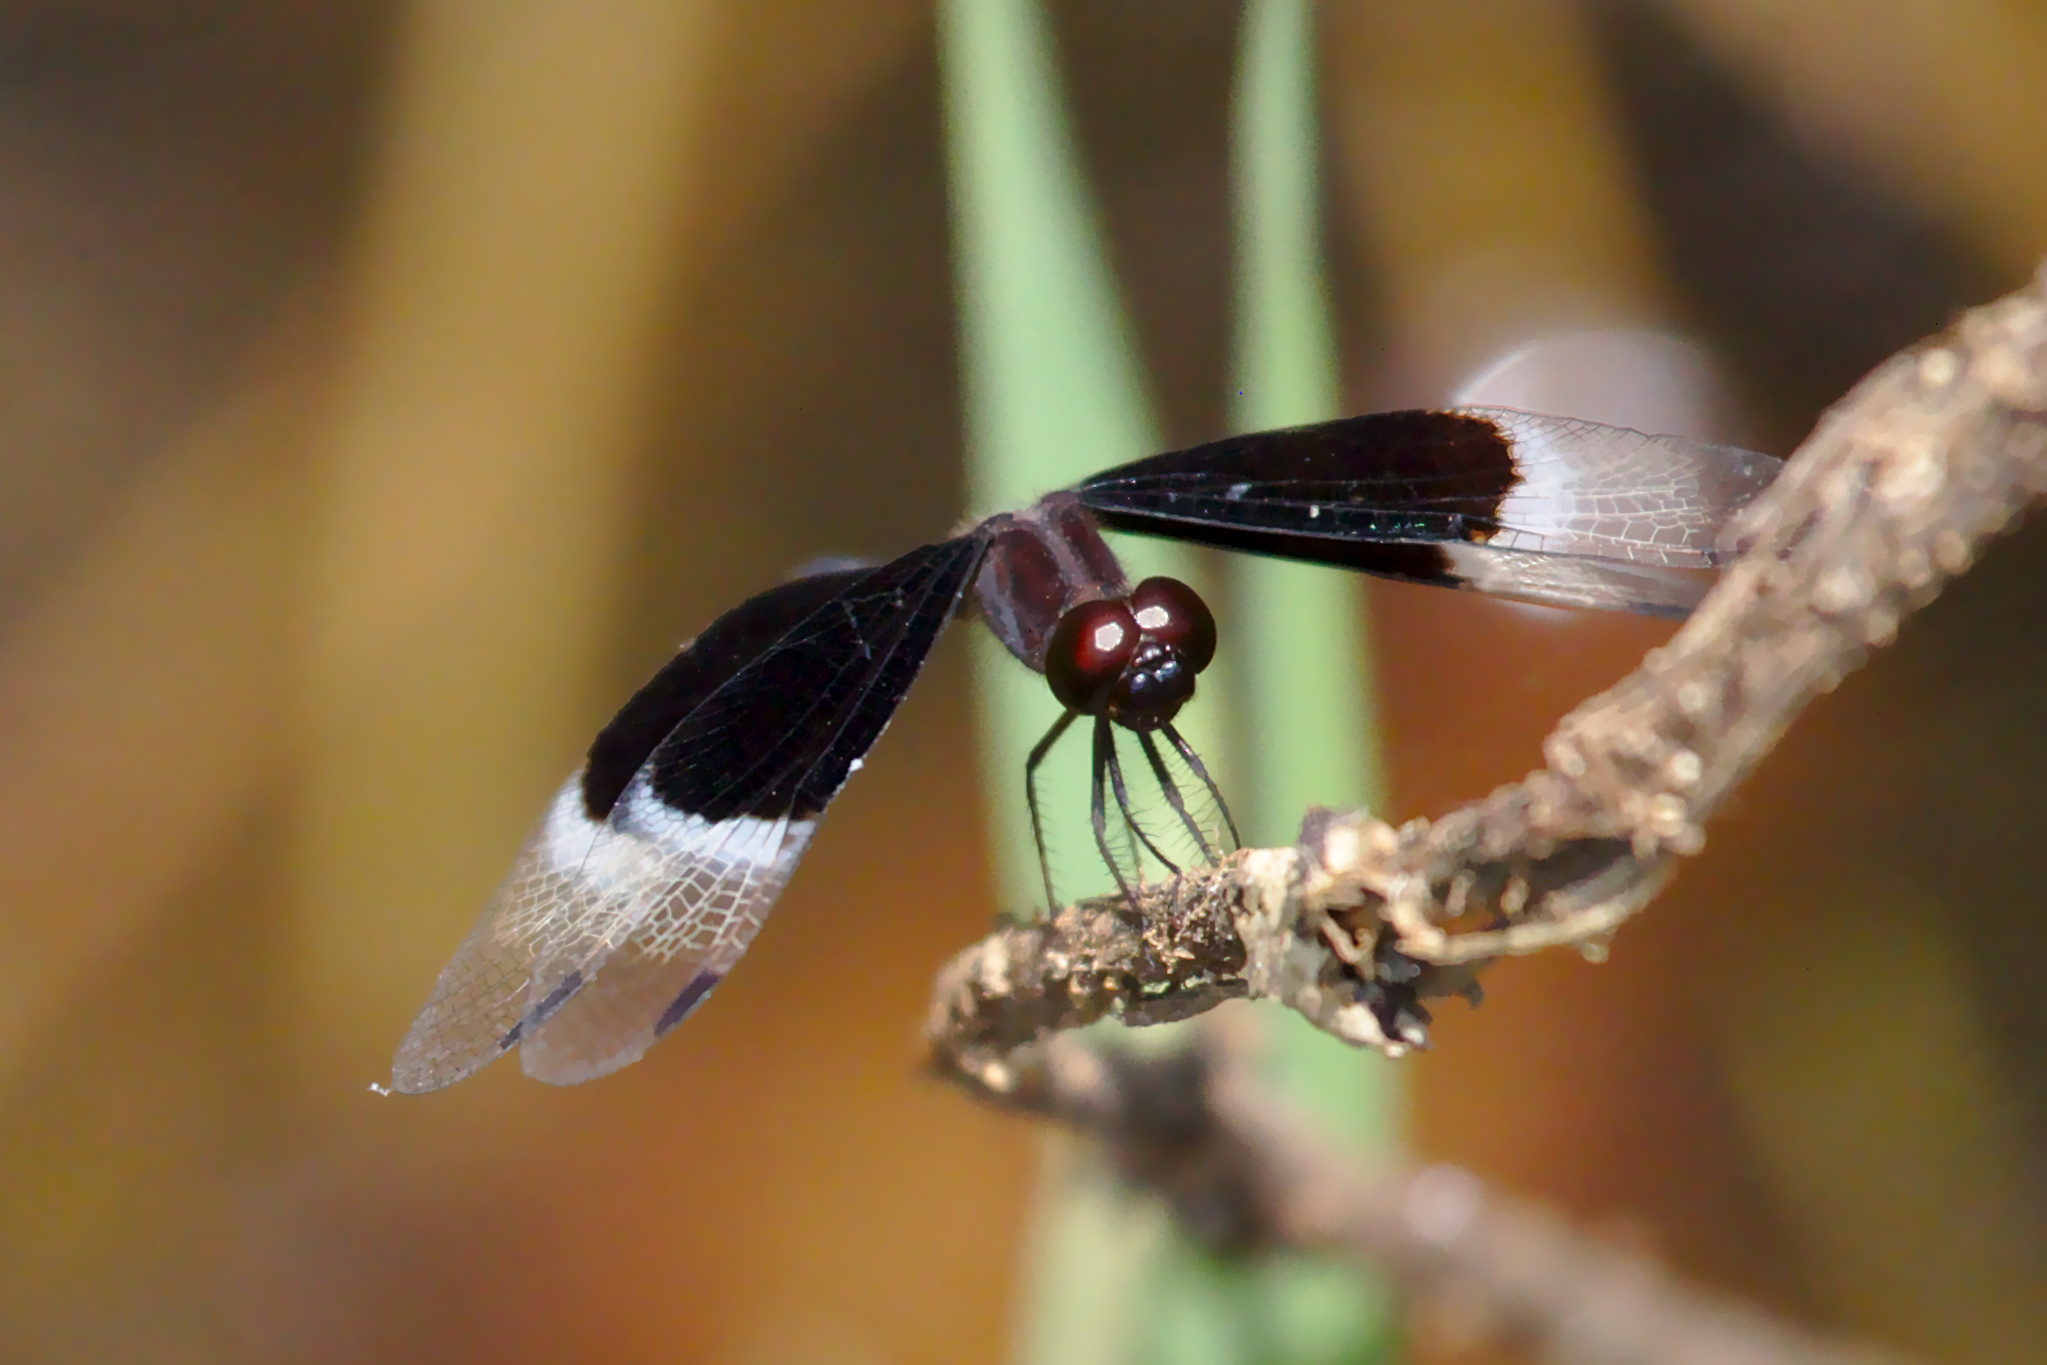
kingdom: Animalia
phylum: Arthropoda
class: Insecta
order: Odonata
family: Libellulidae
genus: Neurothemis
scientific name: Neurothemis tullia
